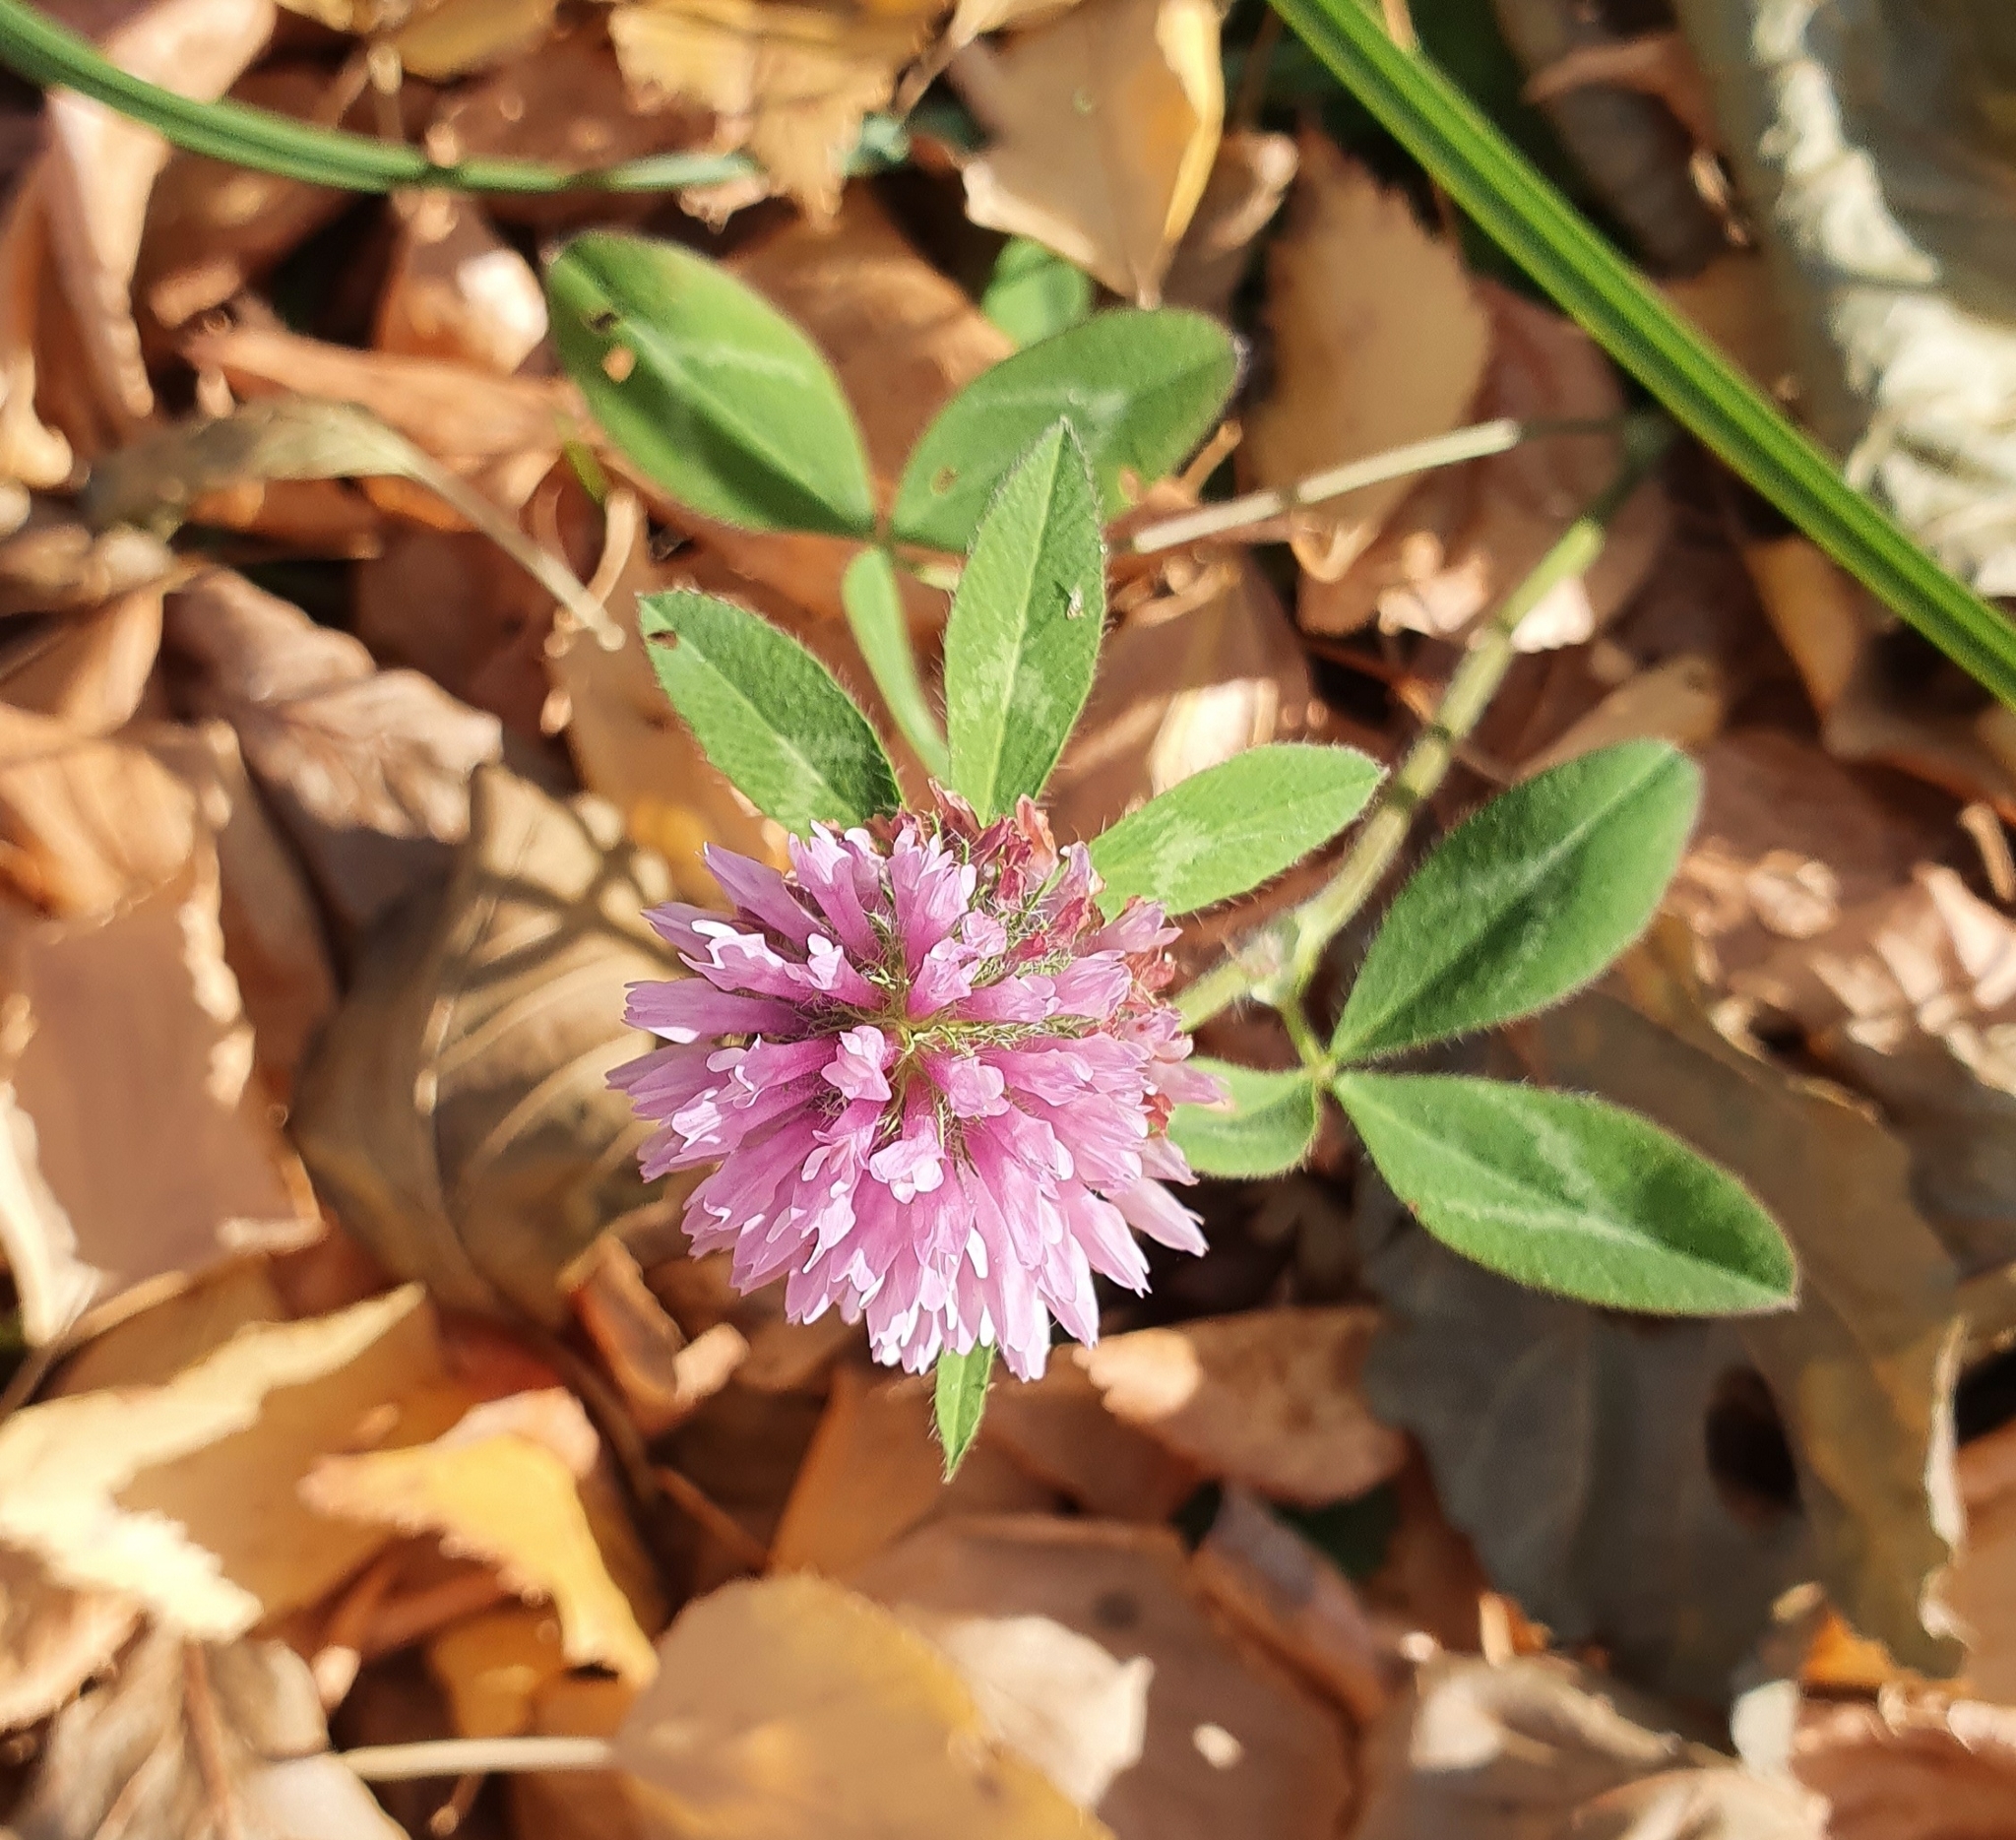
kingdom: Plantae
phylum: Tracheophyta
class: Magnoliopsida
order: Fabales
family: Fabaceae
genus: Trifolium
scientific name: Trifolium pratense
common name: Red clover
